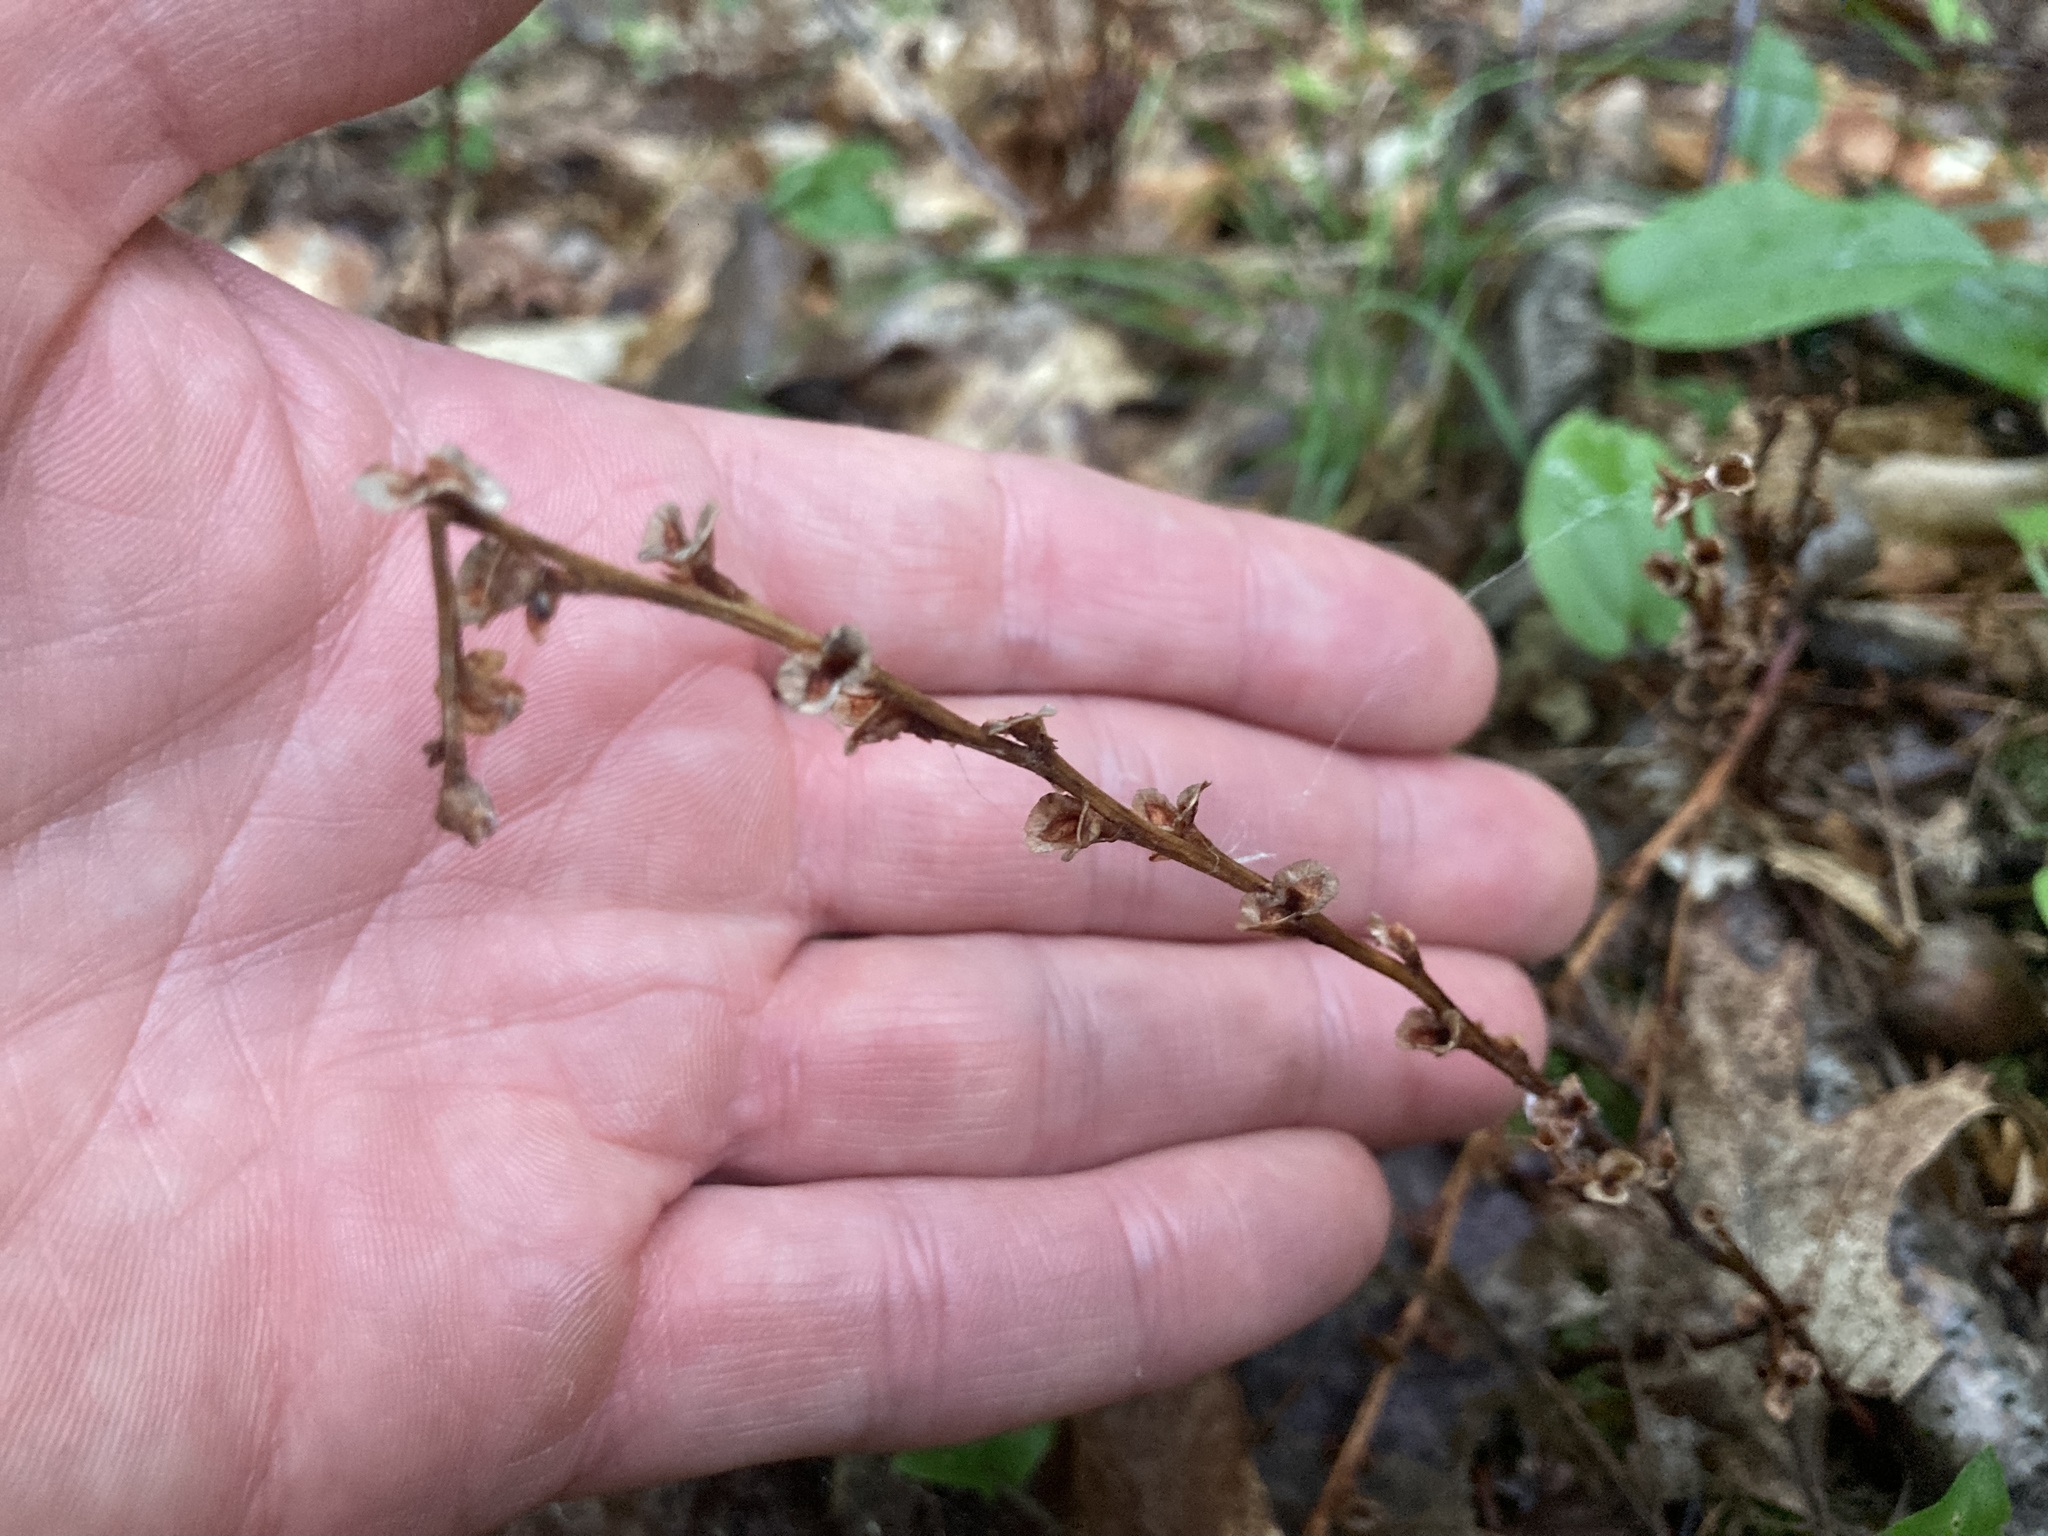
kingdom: Plantae
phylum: Tracheophyta
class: Magnoliopsida
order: Lamiales
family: Orobanchaceae
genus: Epifagus
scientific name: Epifagus virginiana
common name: Beechdrops
